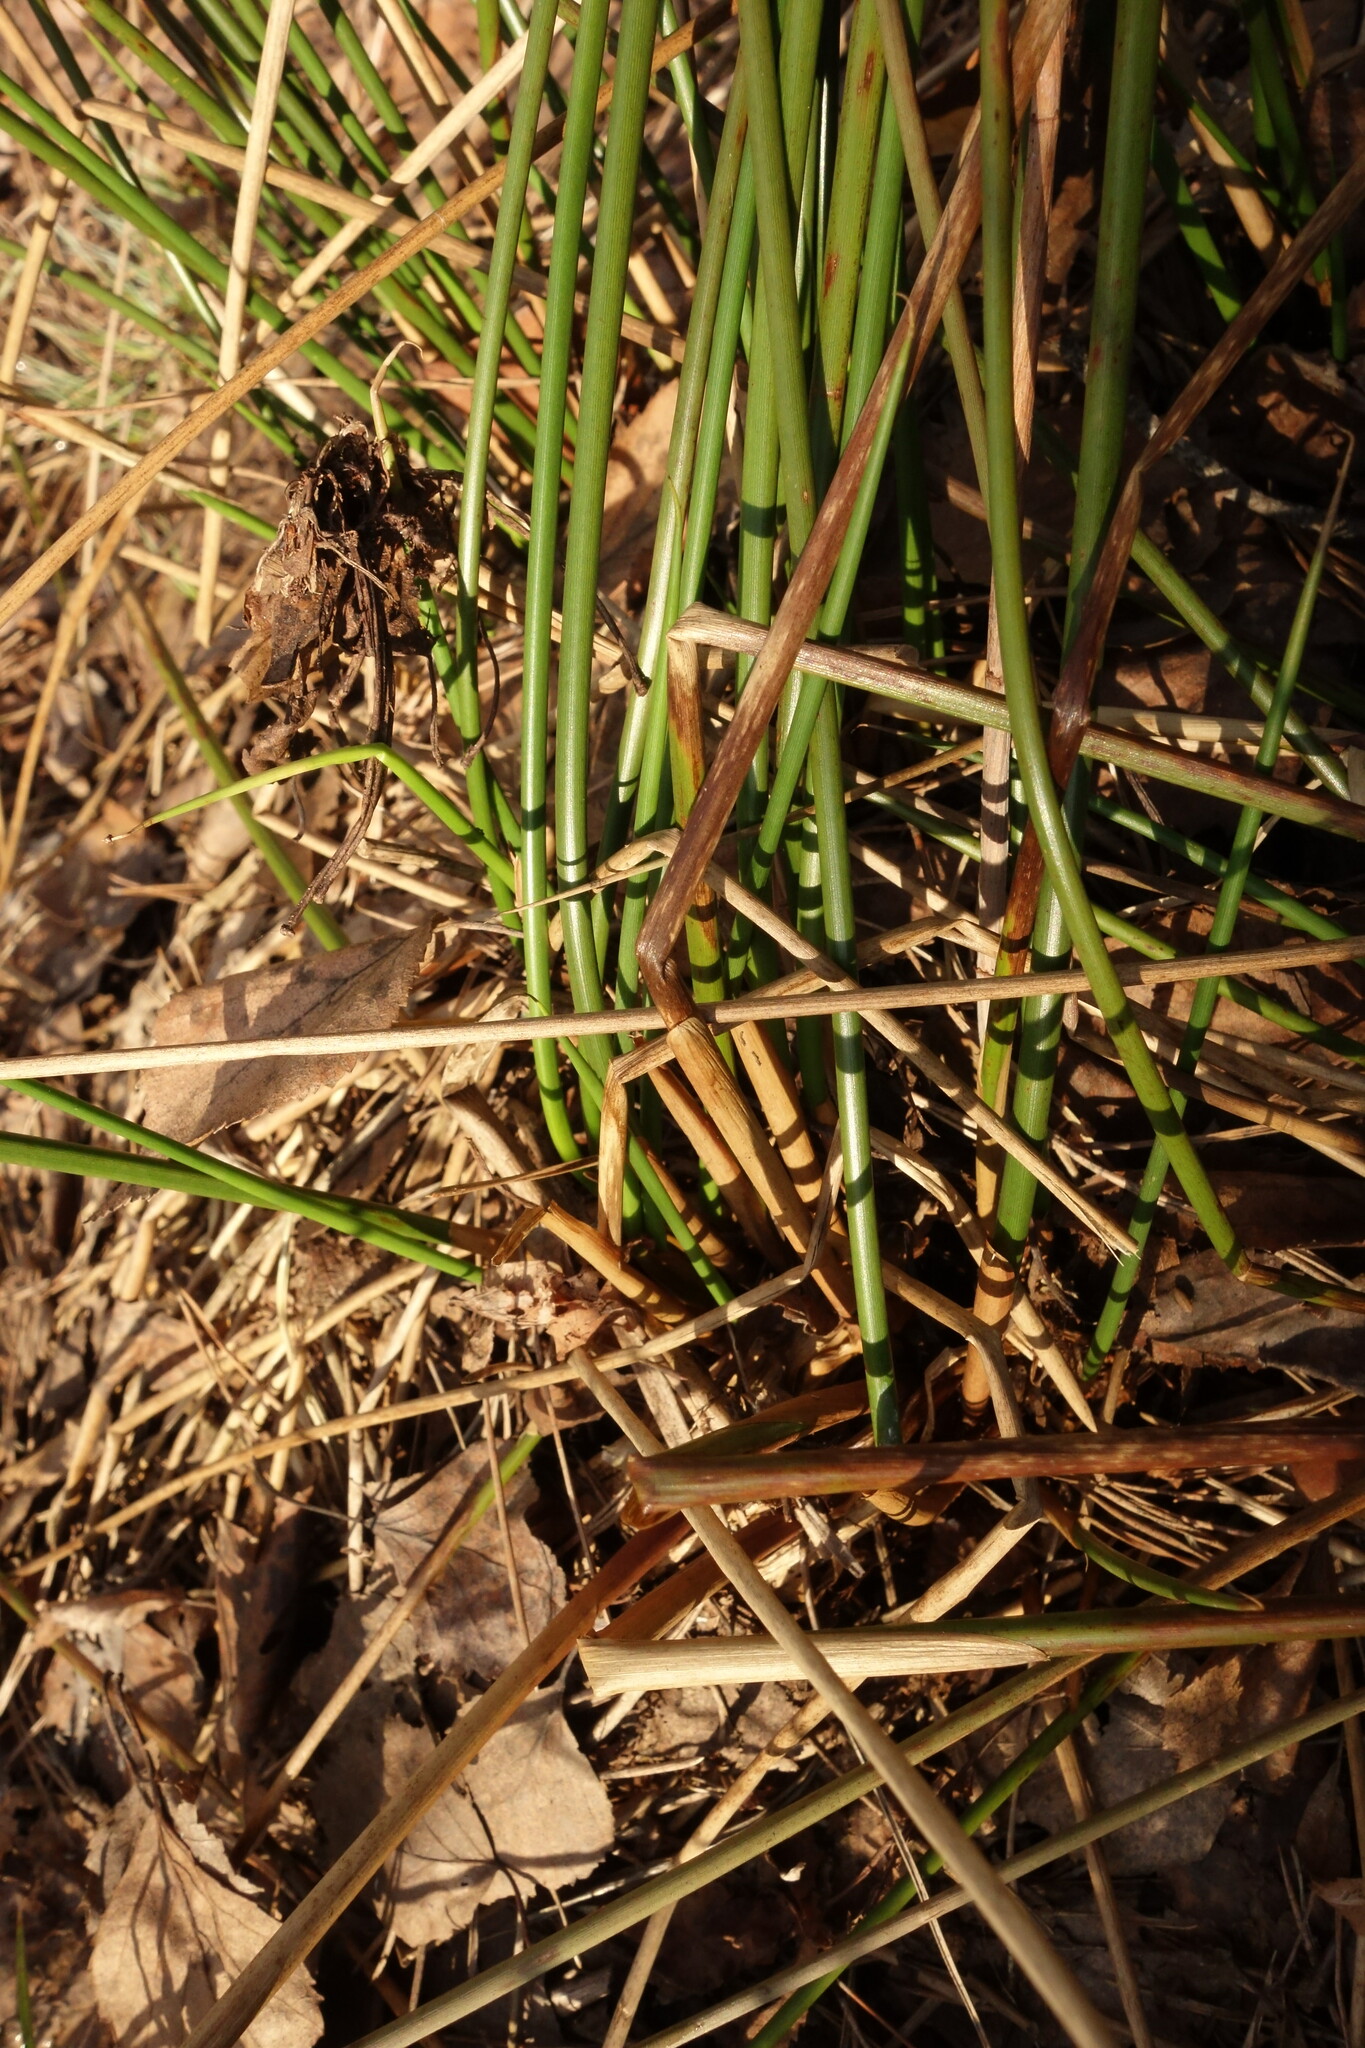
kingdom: Plantae
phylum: Tracheophyta
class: Liliopsida
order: Poales
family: Juncaceae
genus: Juncus
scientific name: Juncus effusus
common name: Soft rush
